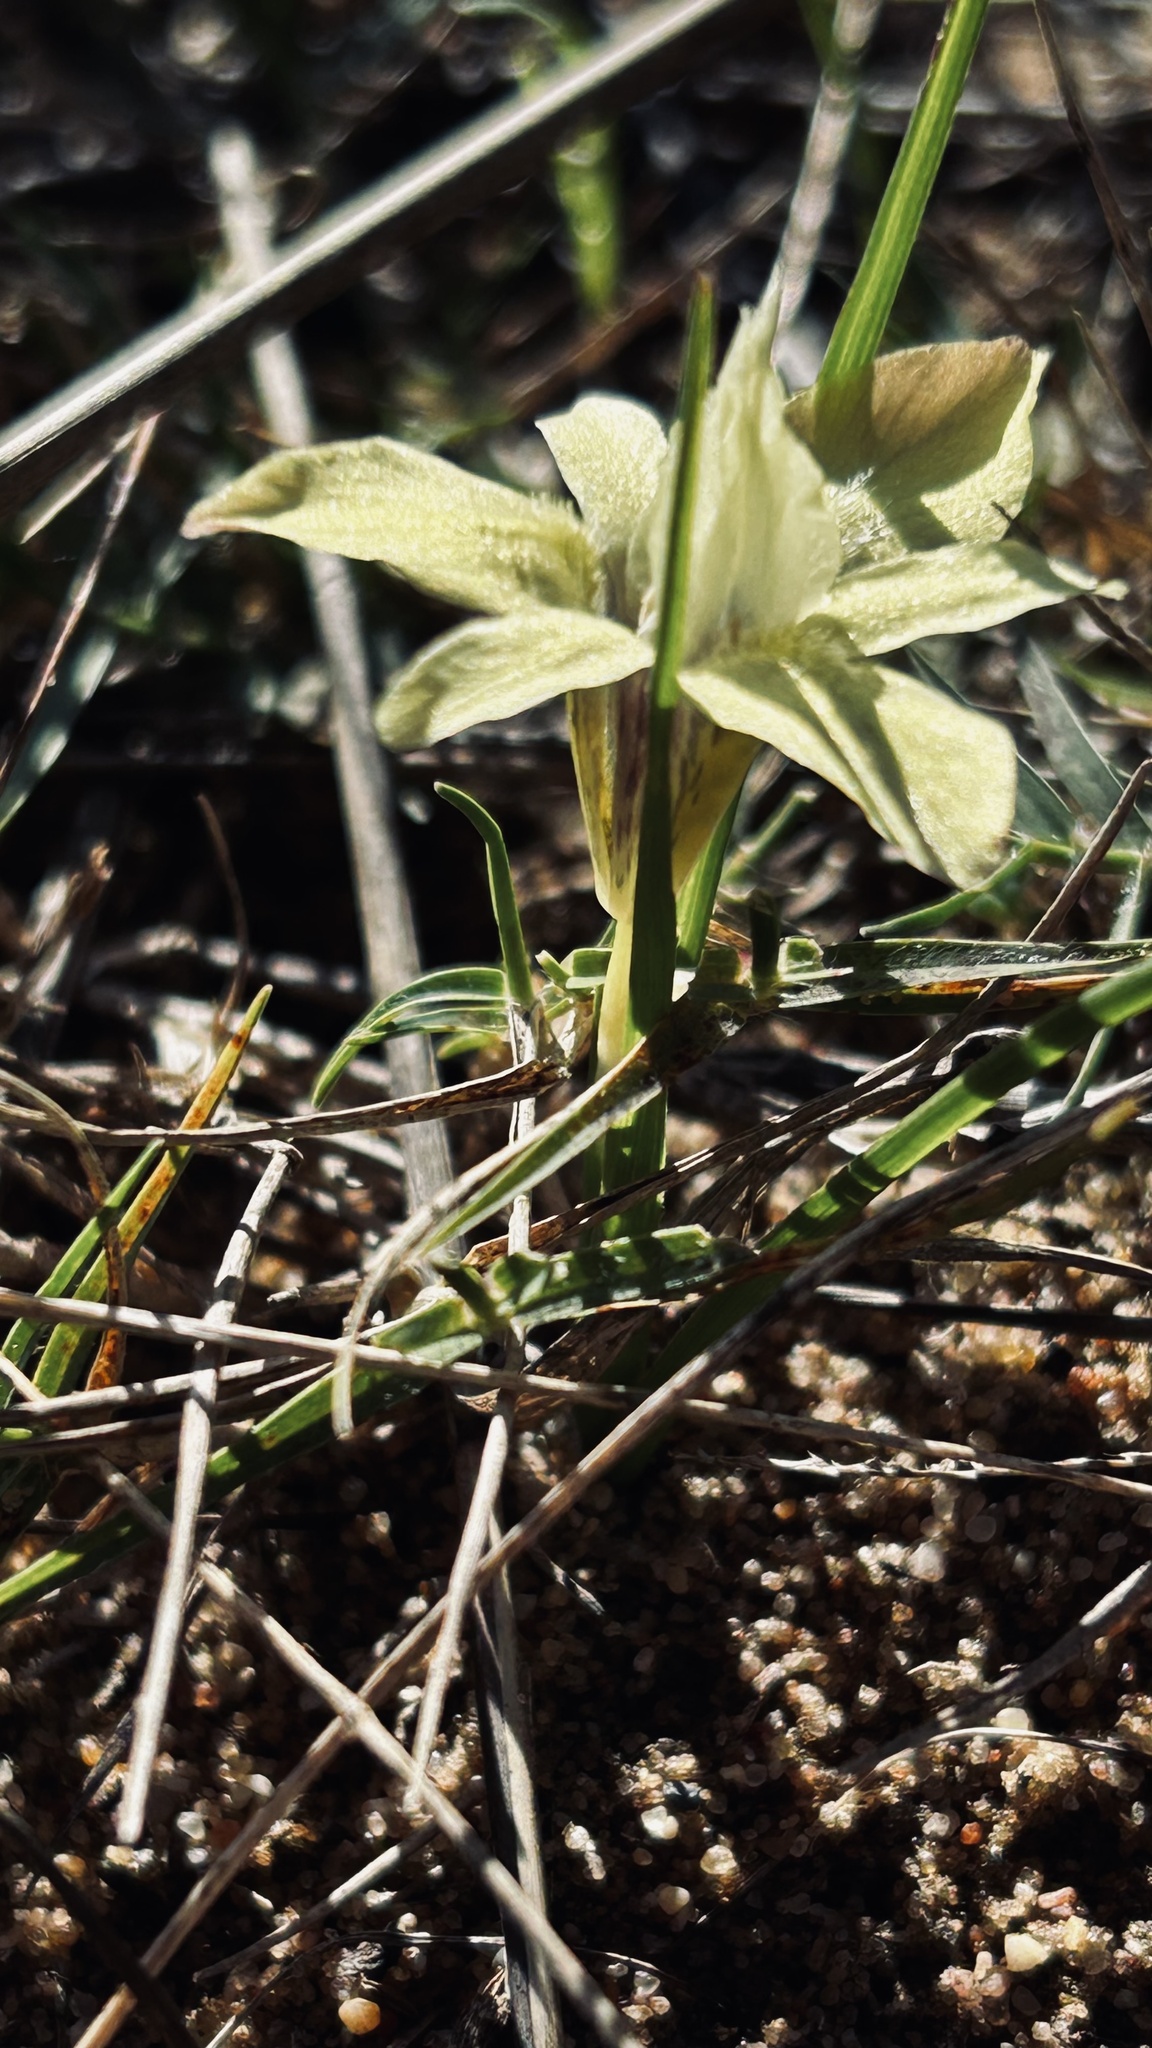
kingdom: Plantae
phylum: Tracheophyta
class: Liliopsida
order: Asparagales
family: Iridaceae
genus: Moraea
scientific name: Moraea tricolor
